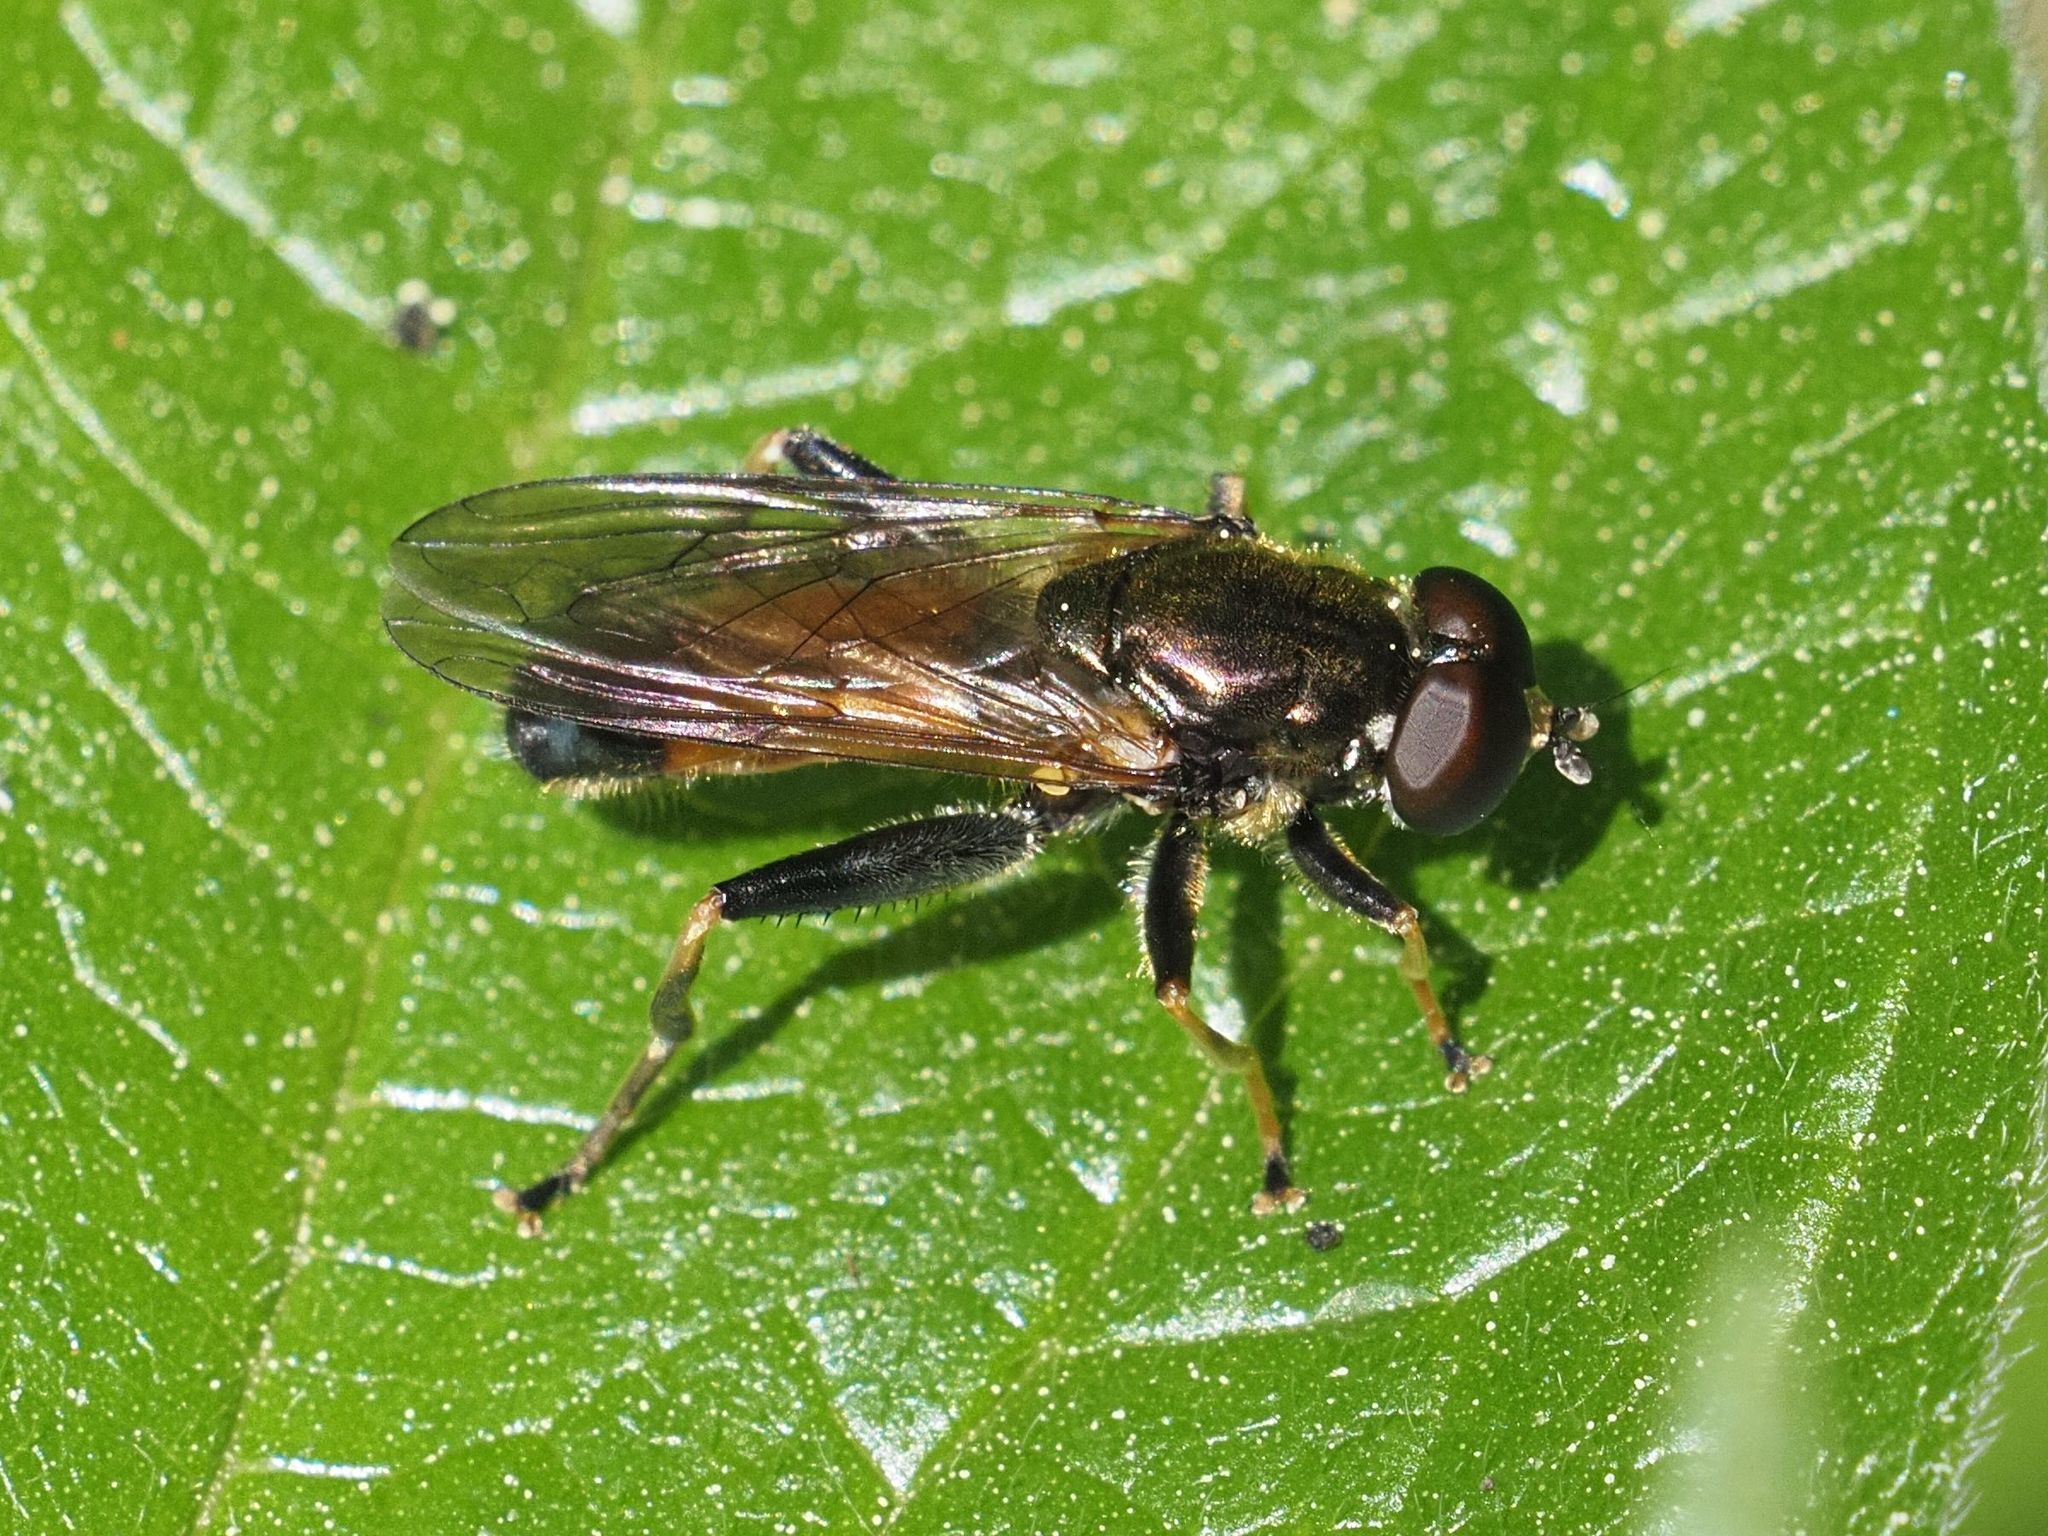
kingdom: Animalia
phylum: Arthropoda
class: Insecta
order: Diptera
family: Syrphidae
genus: Xylota
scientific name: Xylota segnis
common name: Brown-toed forest fly
